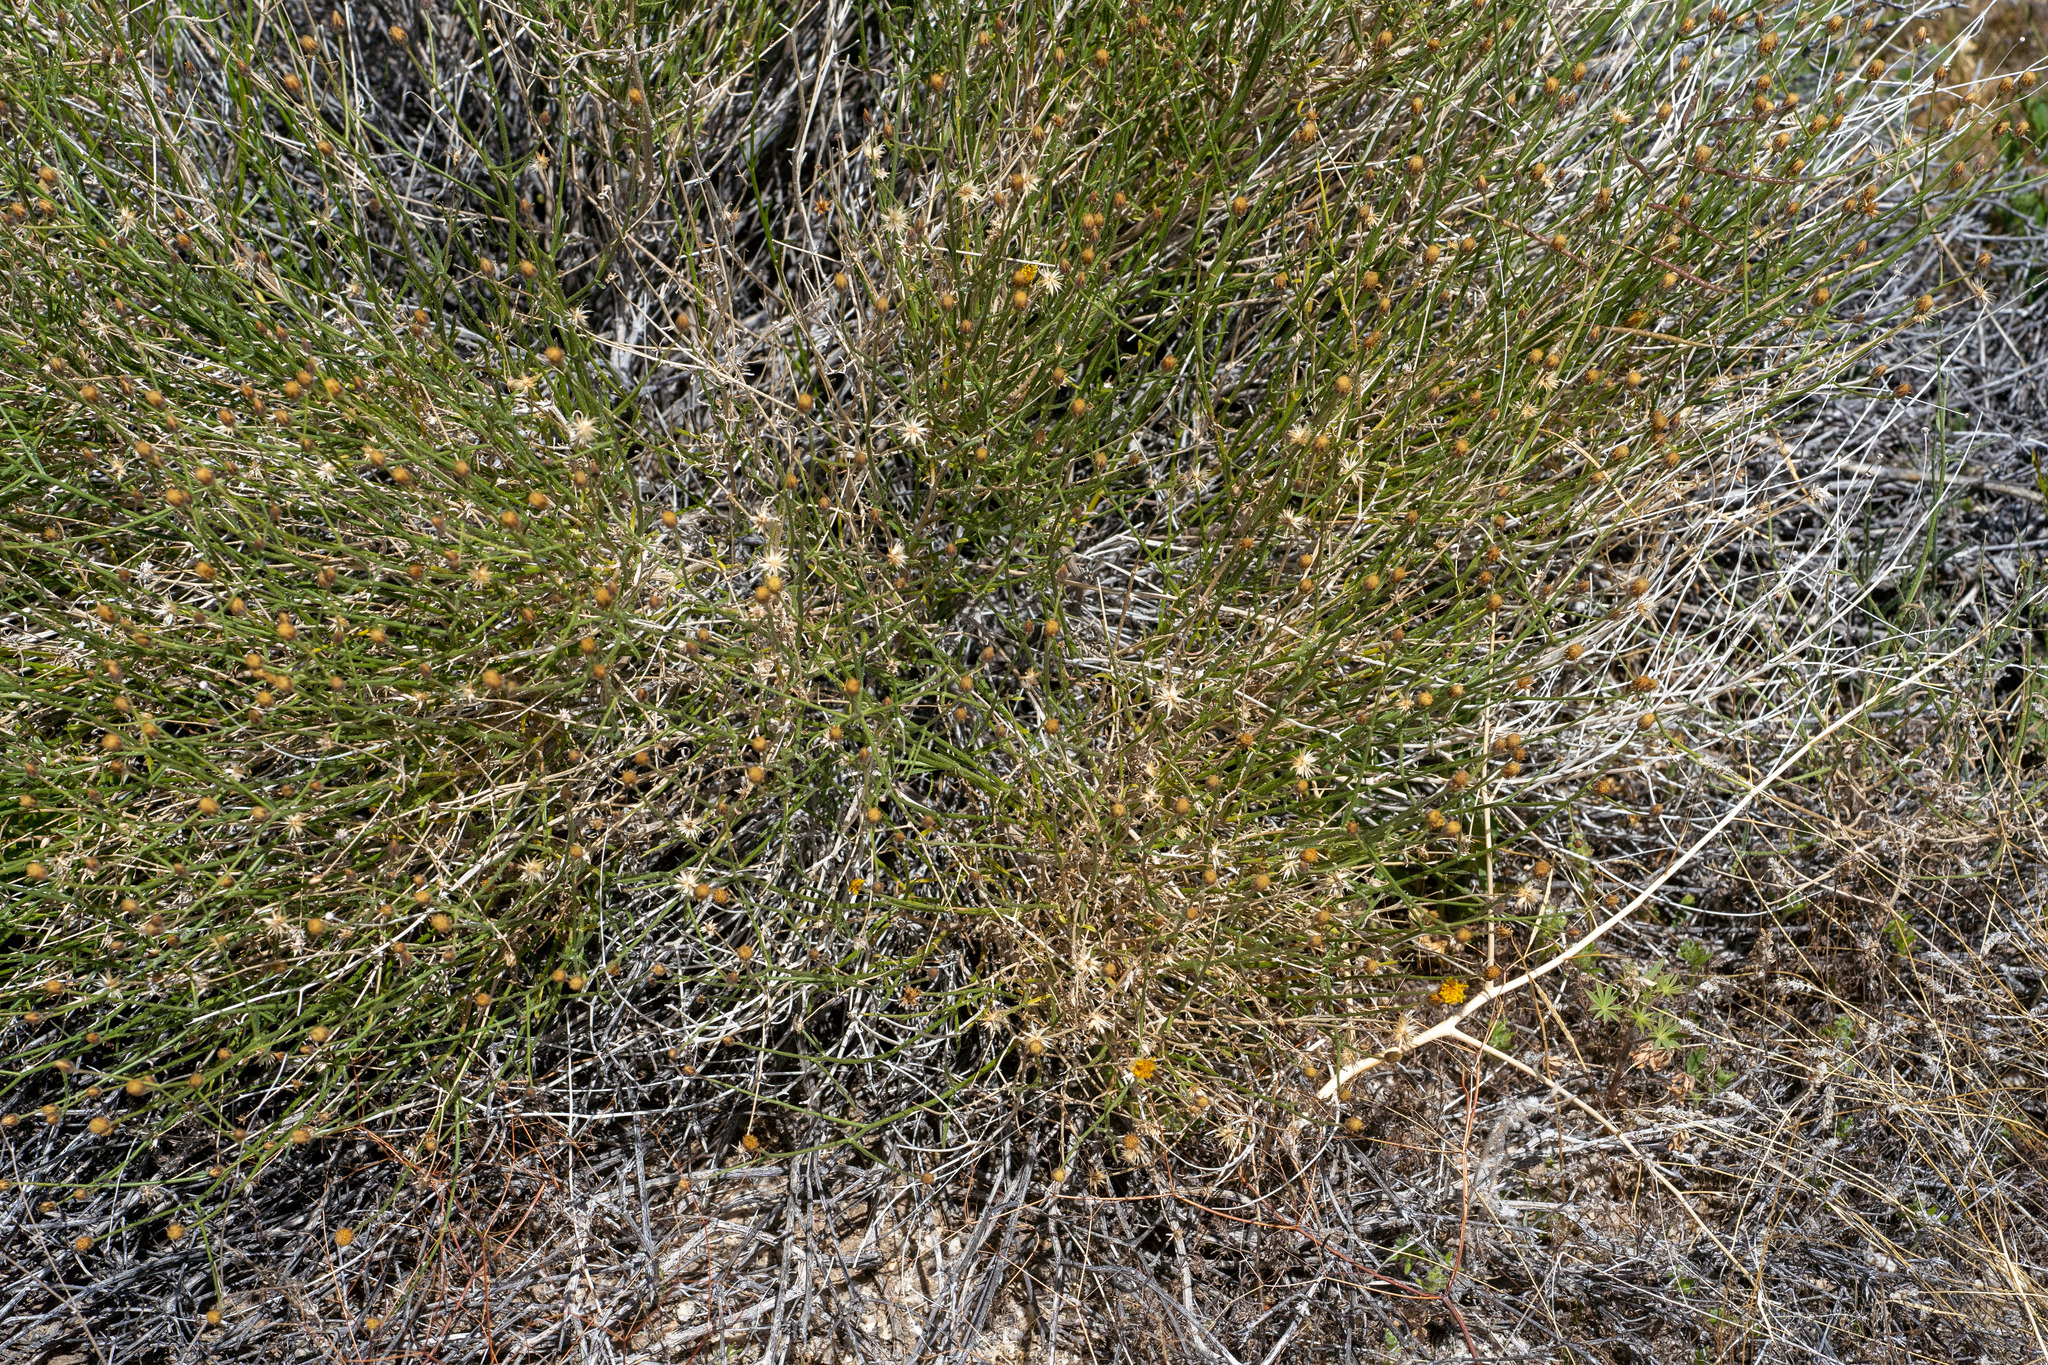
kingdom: Plantae
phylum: Tracheophyta
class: Magnoliopsida
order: Asterales
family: Asteraceae
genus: Bebbia
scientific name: Bebbia juncea
